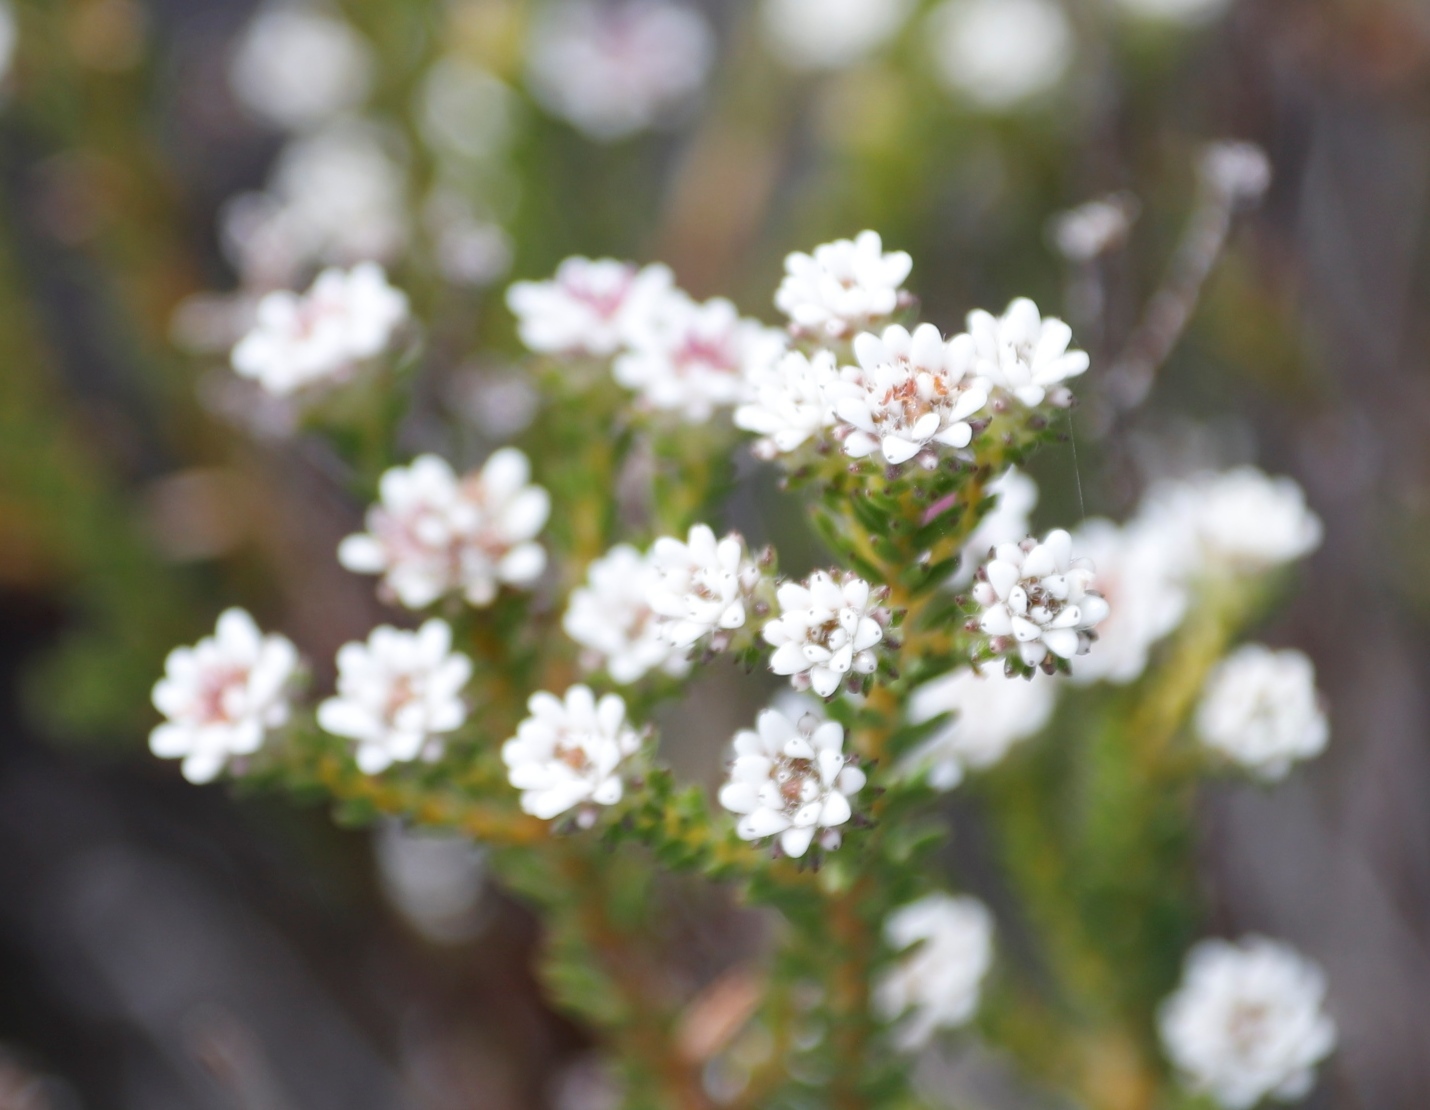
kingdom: Plantae
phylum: Tracheophyta
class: Magnoliopsida
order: Bruniales
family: Bruniaceae
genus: Staavia
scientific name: Staavia radiata
